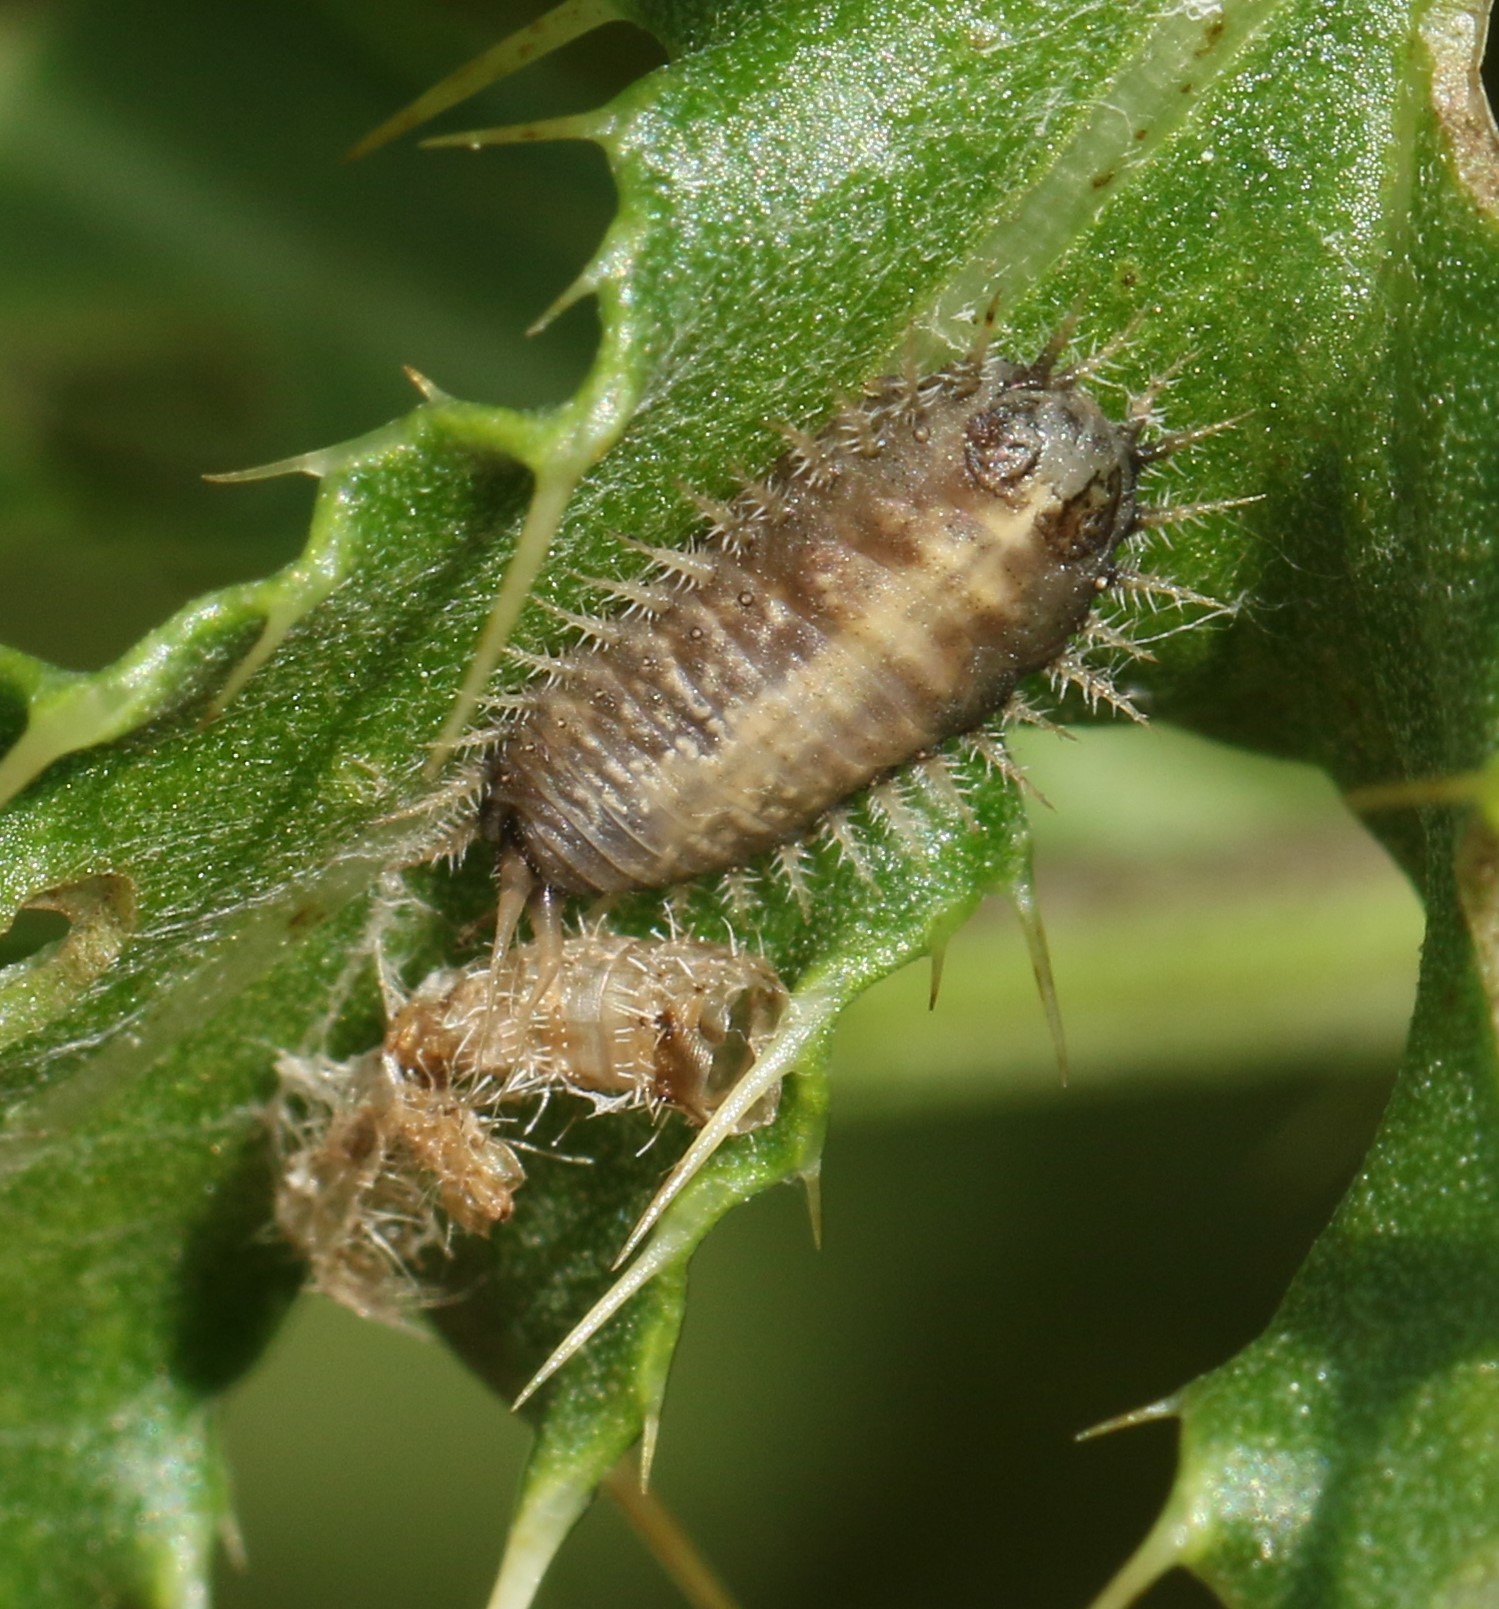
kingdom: Animalia
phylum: Arthropoda
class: Insecta
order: Coleoptera
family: Chrysomelidae
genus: Cassida
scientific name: Cassida rubiginosa
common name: Thistle tortoise beetle
